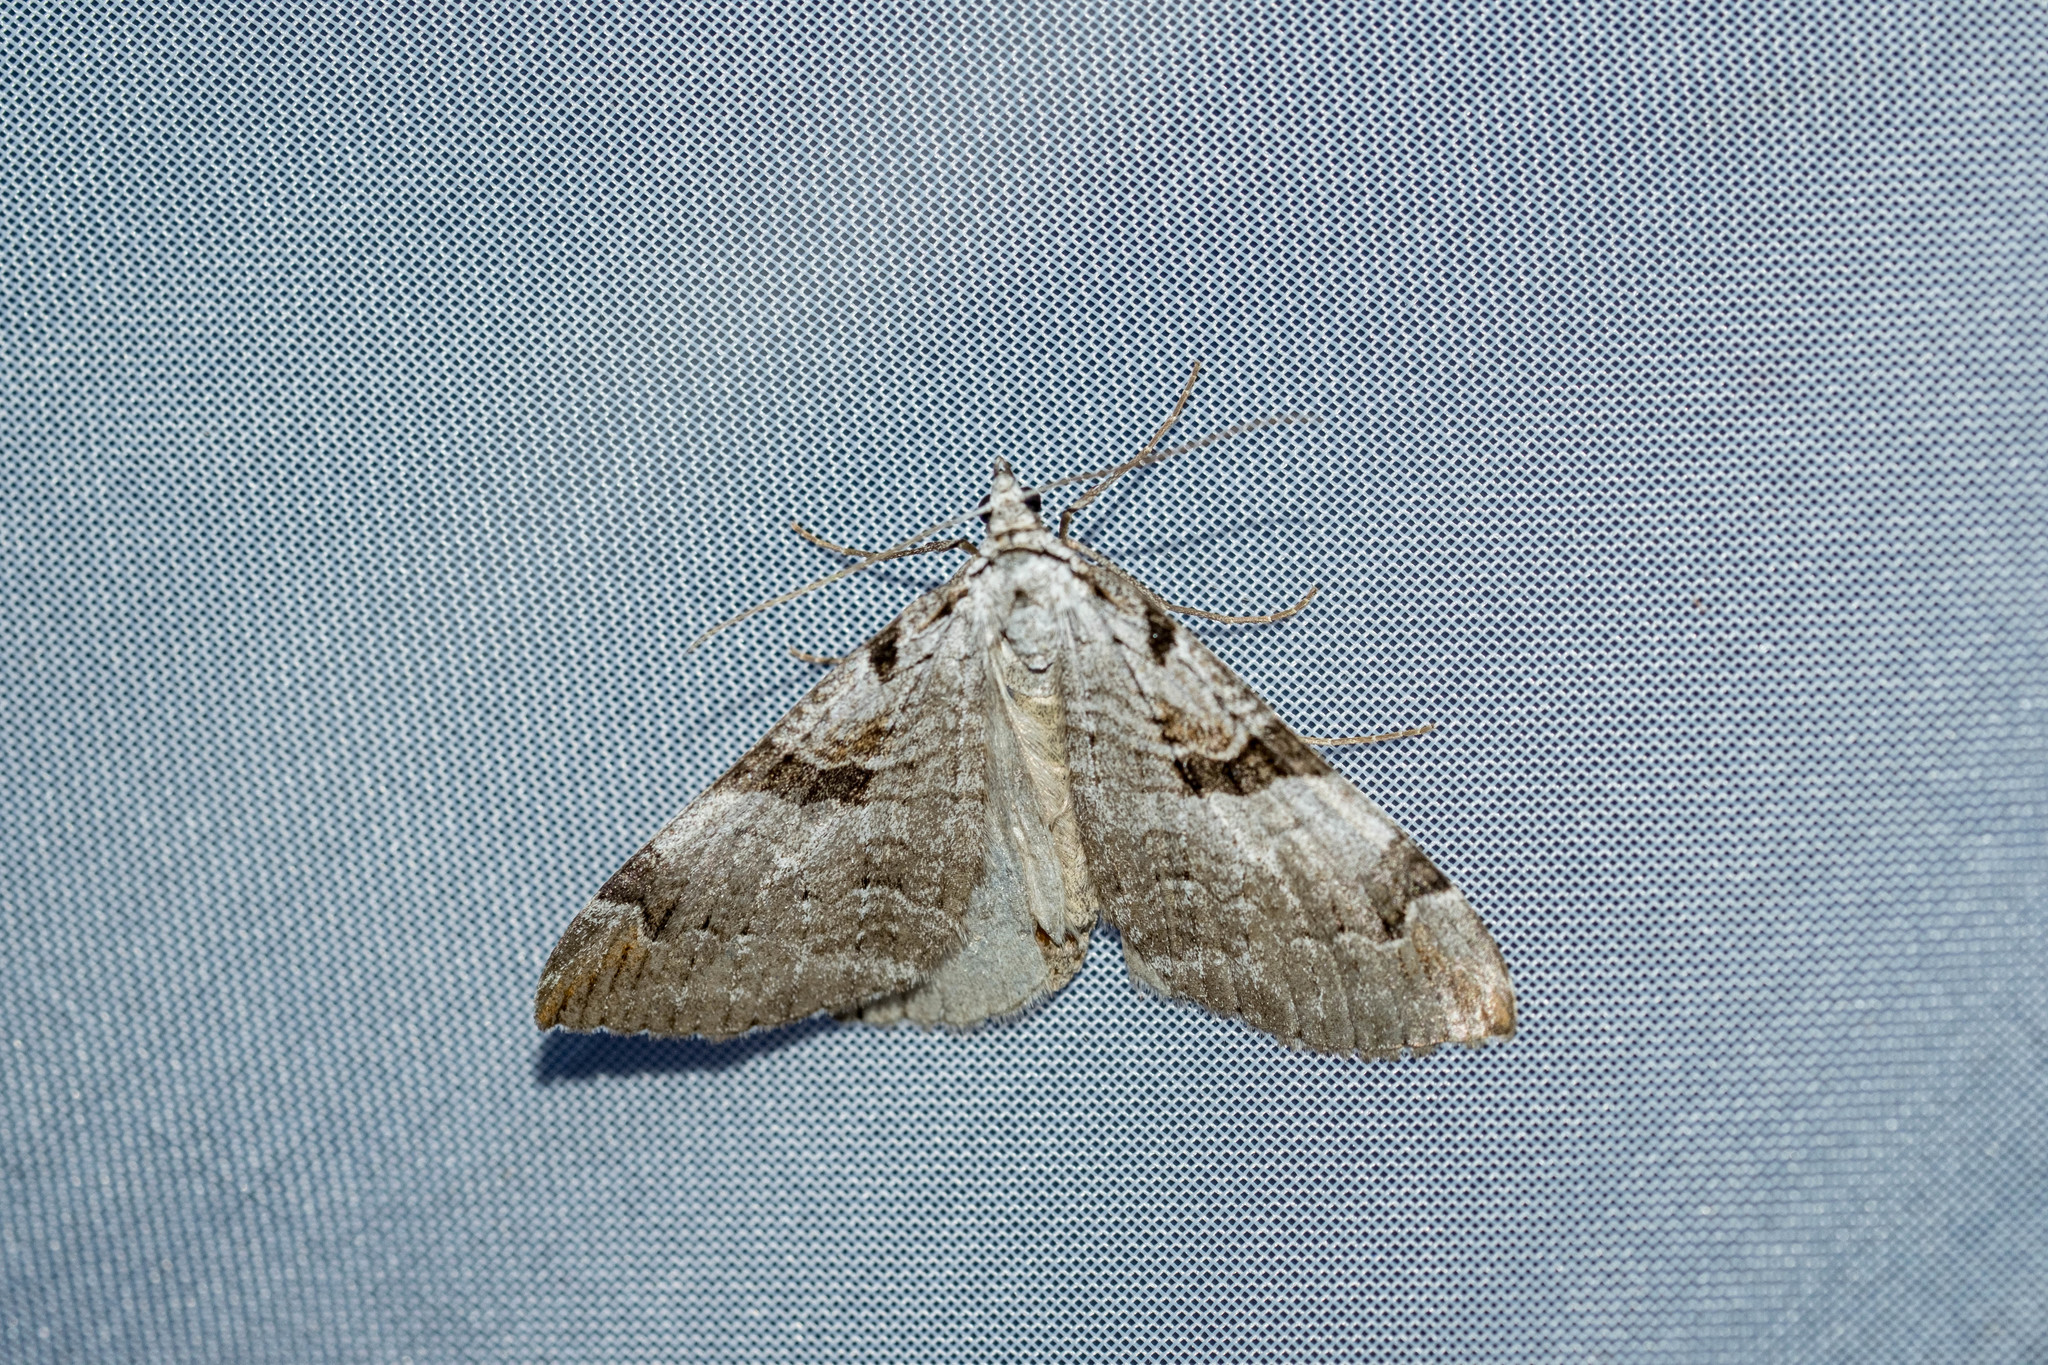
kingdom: Animalia
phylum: Arthropoda
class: Insecta
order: Lepidoptera
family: Geometridae
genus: Aplocera
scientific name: Aplocera praeformata
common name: Purple treble-bar
